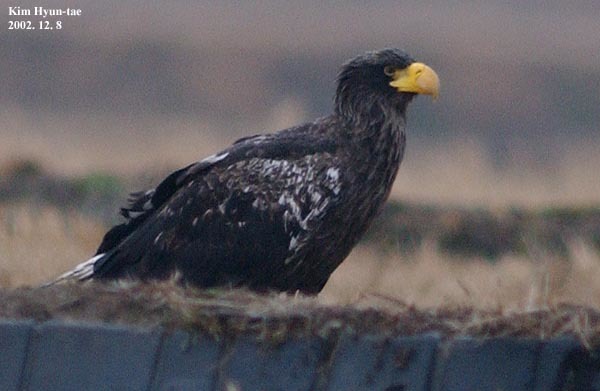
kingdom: Animalia
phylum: Chordata
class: Aves
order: Accipitriformes
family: Accipitridae
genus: Haliaeetus
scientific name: Haliaeetus pelagicus
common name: Steller's sea eagle
